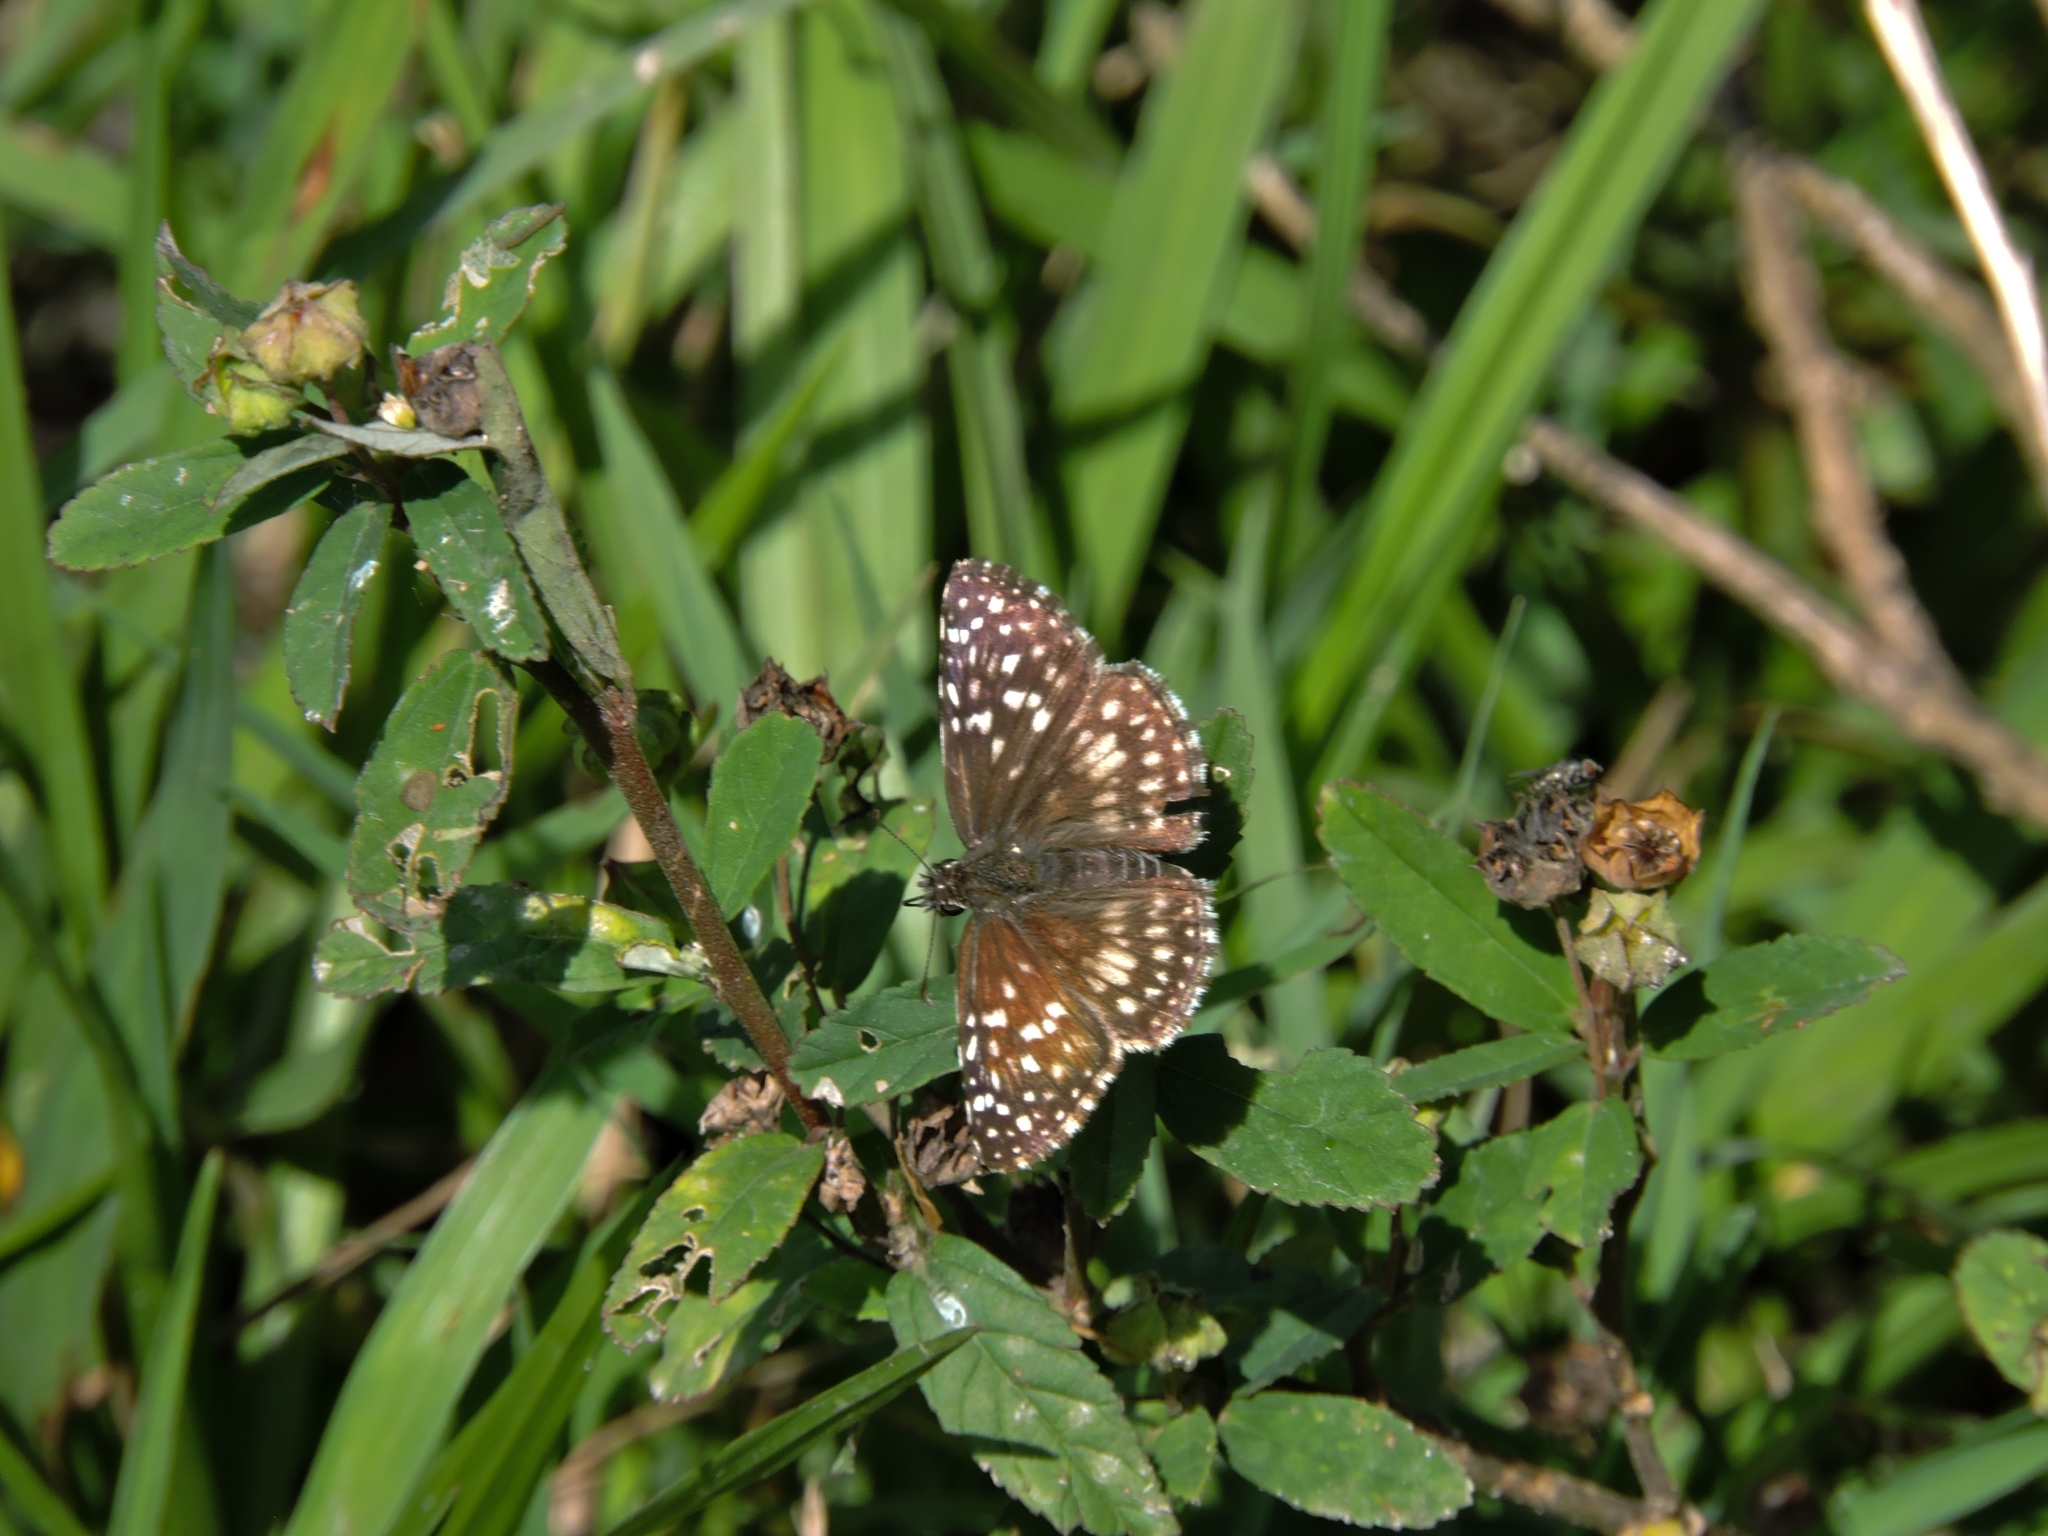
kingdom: Animalia
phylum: Arthropoda
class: Insecta
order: Lepidoptera
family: Hesperiidae
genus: Pyrgus
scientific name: Pyrgus oileus
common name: Tropical checkered-skipper
